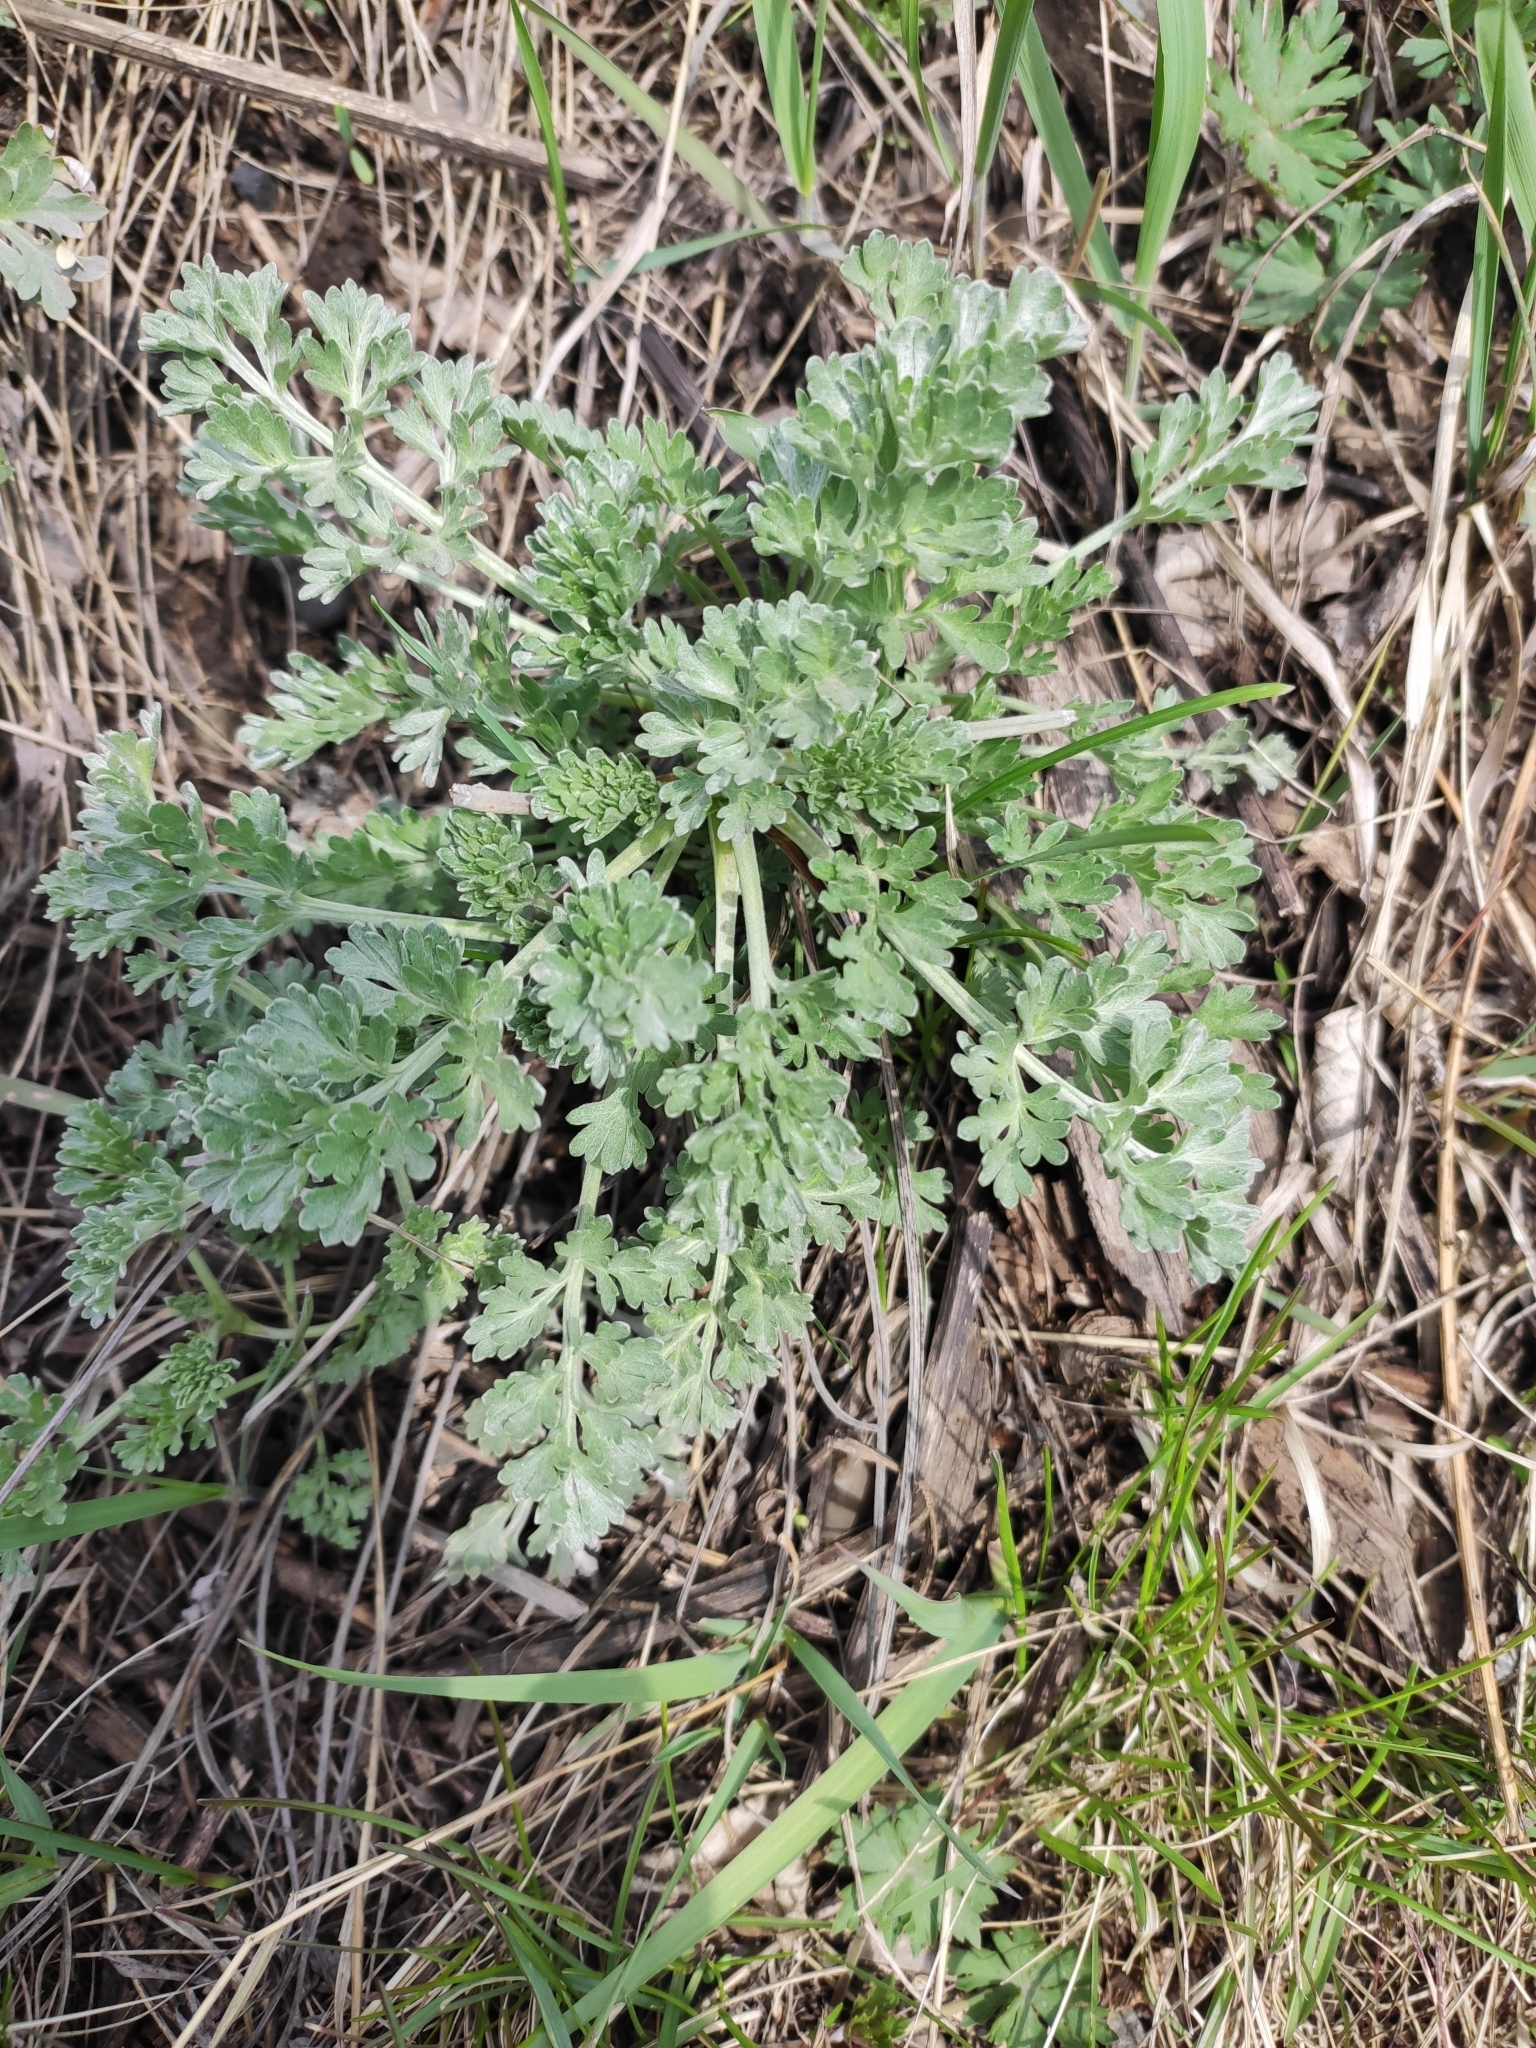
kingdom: Plantae
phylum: Tracheophyta
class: Magnoliopsida
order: Asterales
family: Asteraceae
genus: Artemisia
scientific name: Artemisia absinthium
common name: Wormwood
